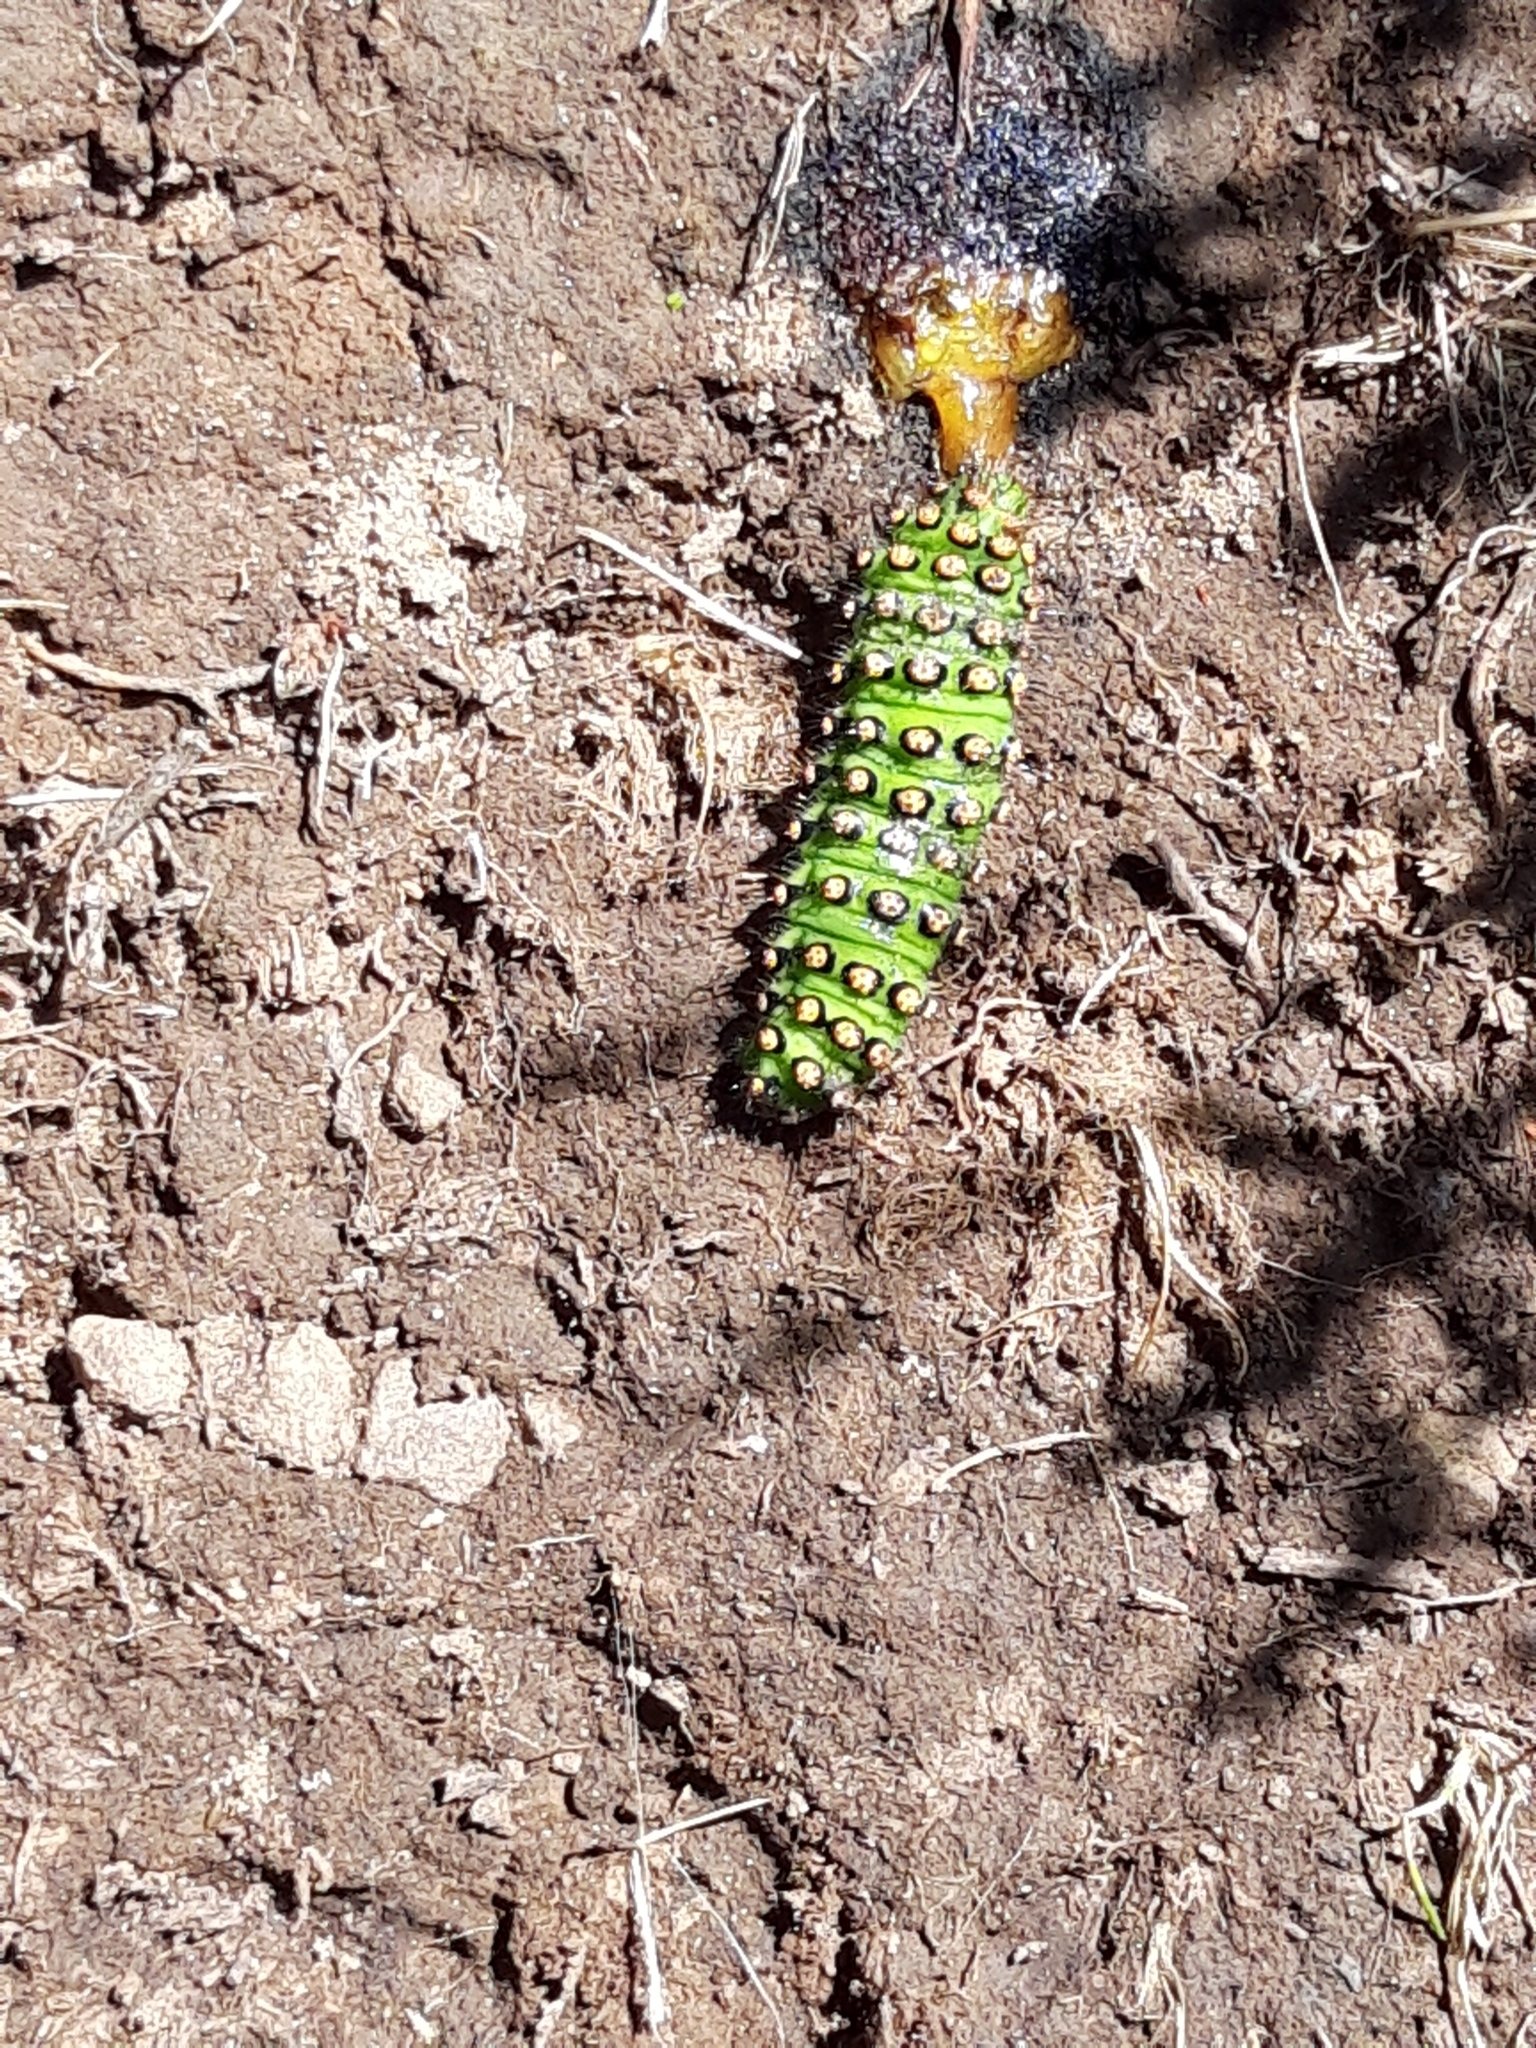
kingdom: Animalia
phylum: Arthropoda
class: Insecta
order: Lepidoptera
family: Saturniidae
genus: Saturnia
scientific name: Saturnia pavonia
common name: Emperor moth
